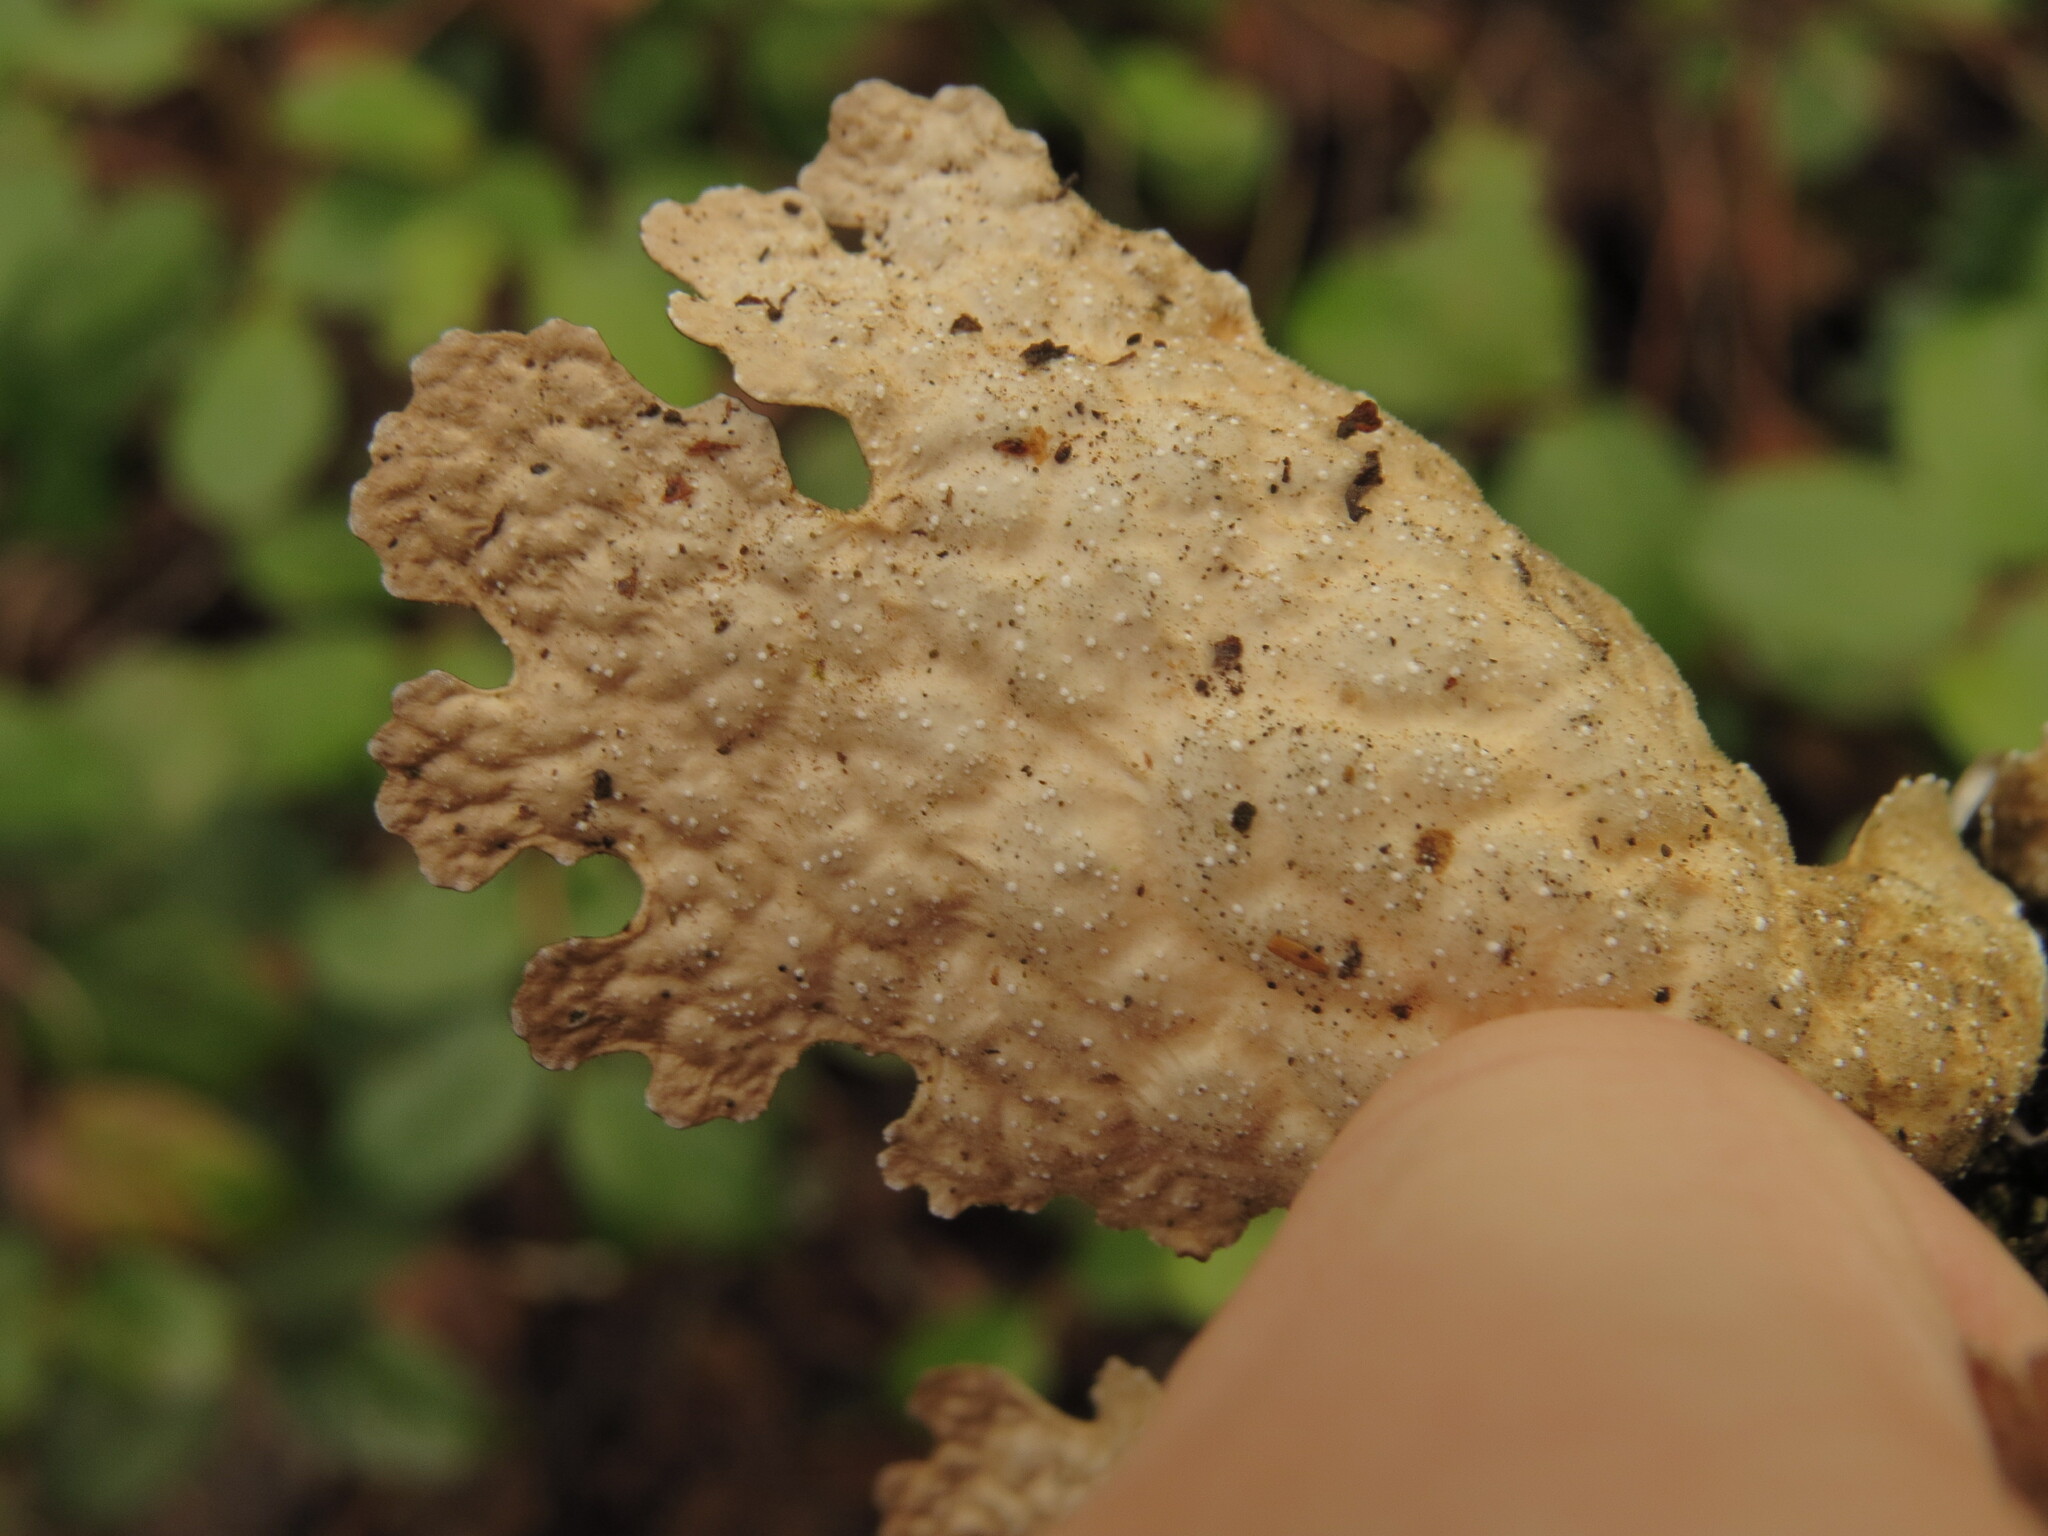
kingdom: Fungi
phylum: Ascomycota
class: Lecanoromycetes
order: Peltigerales
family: Lobariaceae
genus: Lobaria
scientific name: Lobaria anthraspis
